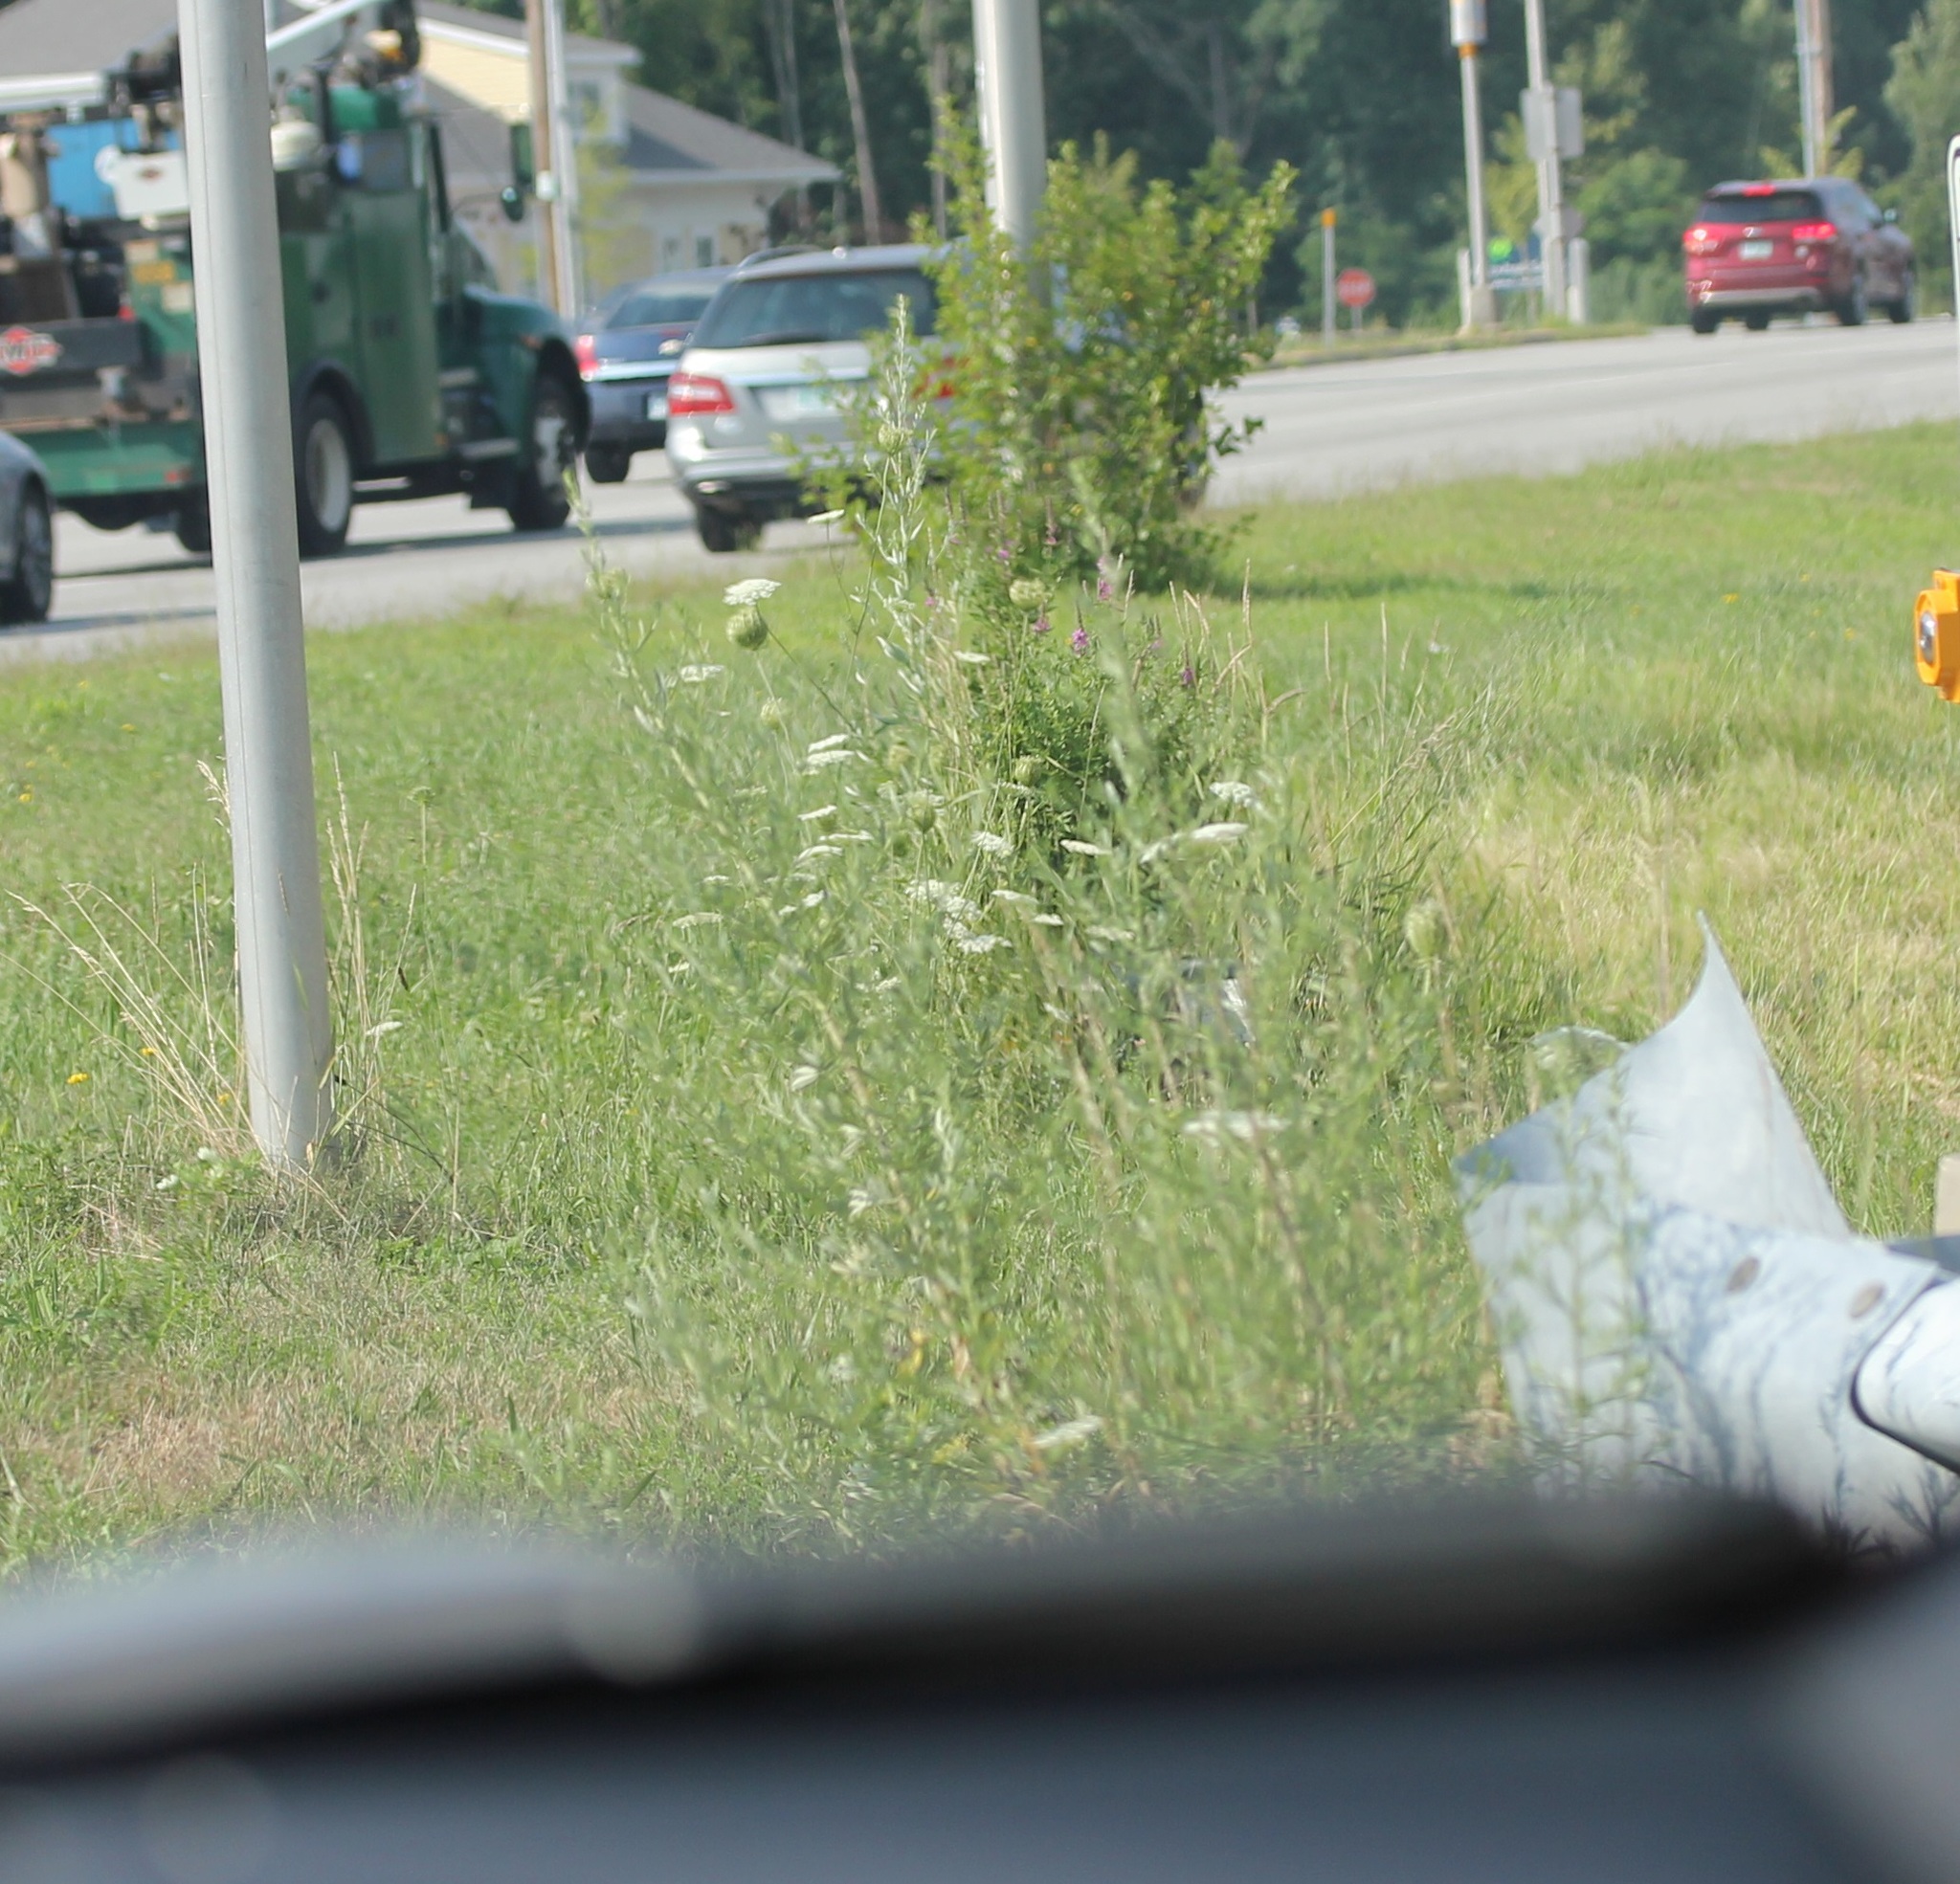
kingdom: Plantae
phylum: Tracheophyta
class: Magnoliopsida
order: Apiales
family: Apiaceae
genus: Daucus
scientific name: Daucus carota
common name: Wild carrot
